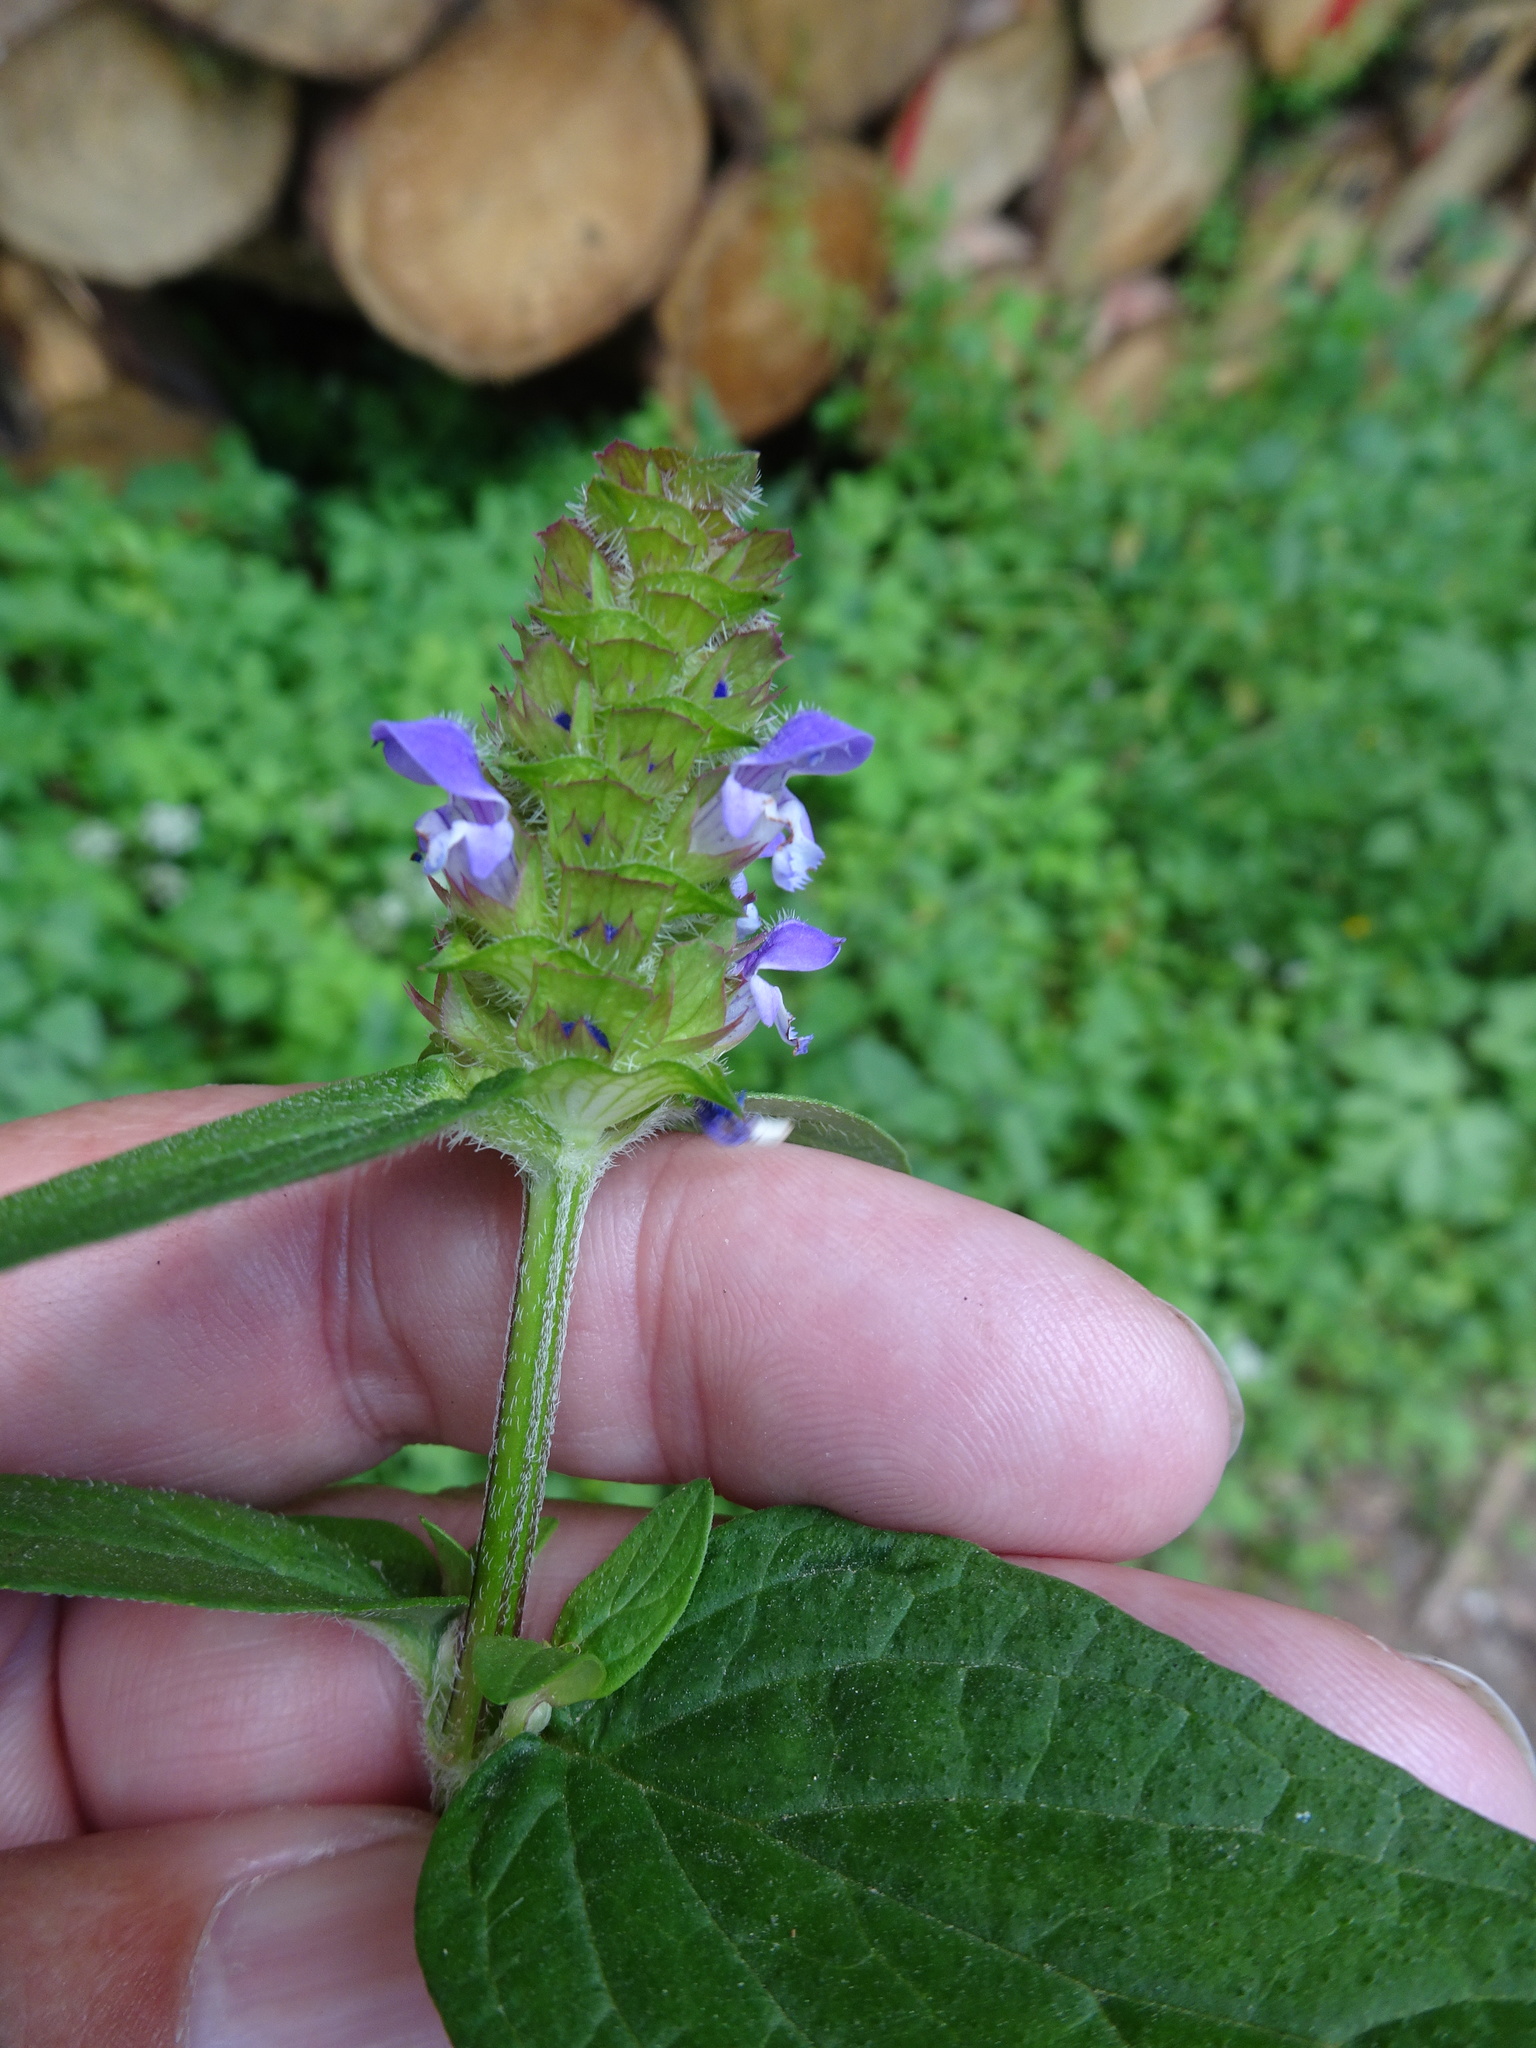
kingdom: Plantae
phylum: Tracheophyta
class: Magnoliopsida
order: Lamiales
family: Lamiaceae
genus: Prunella
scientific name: Prunella vulgaris
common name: Heal-all
